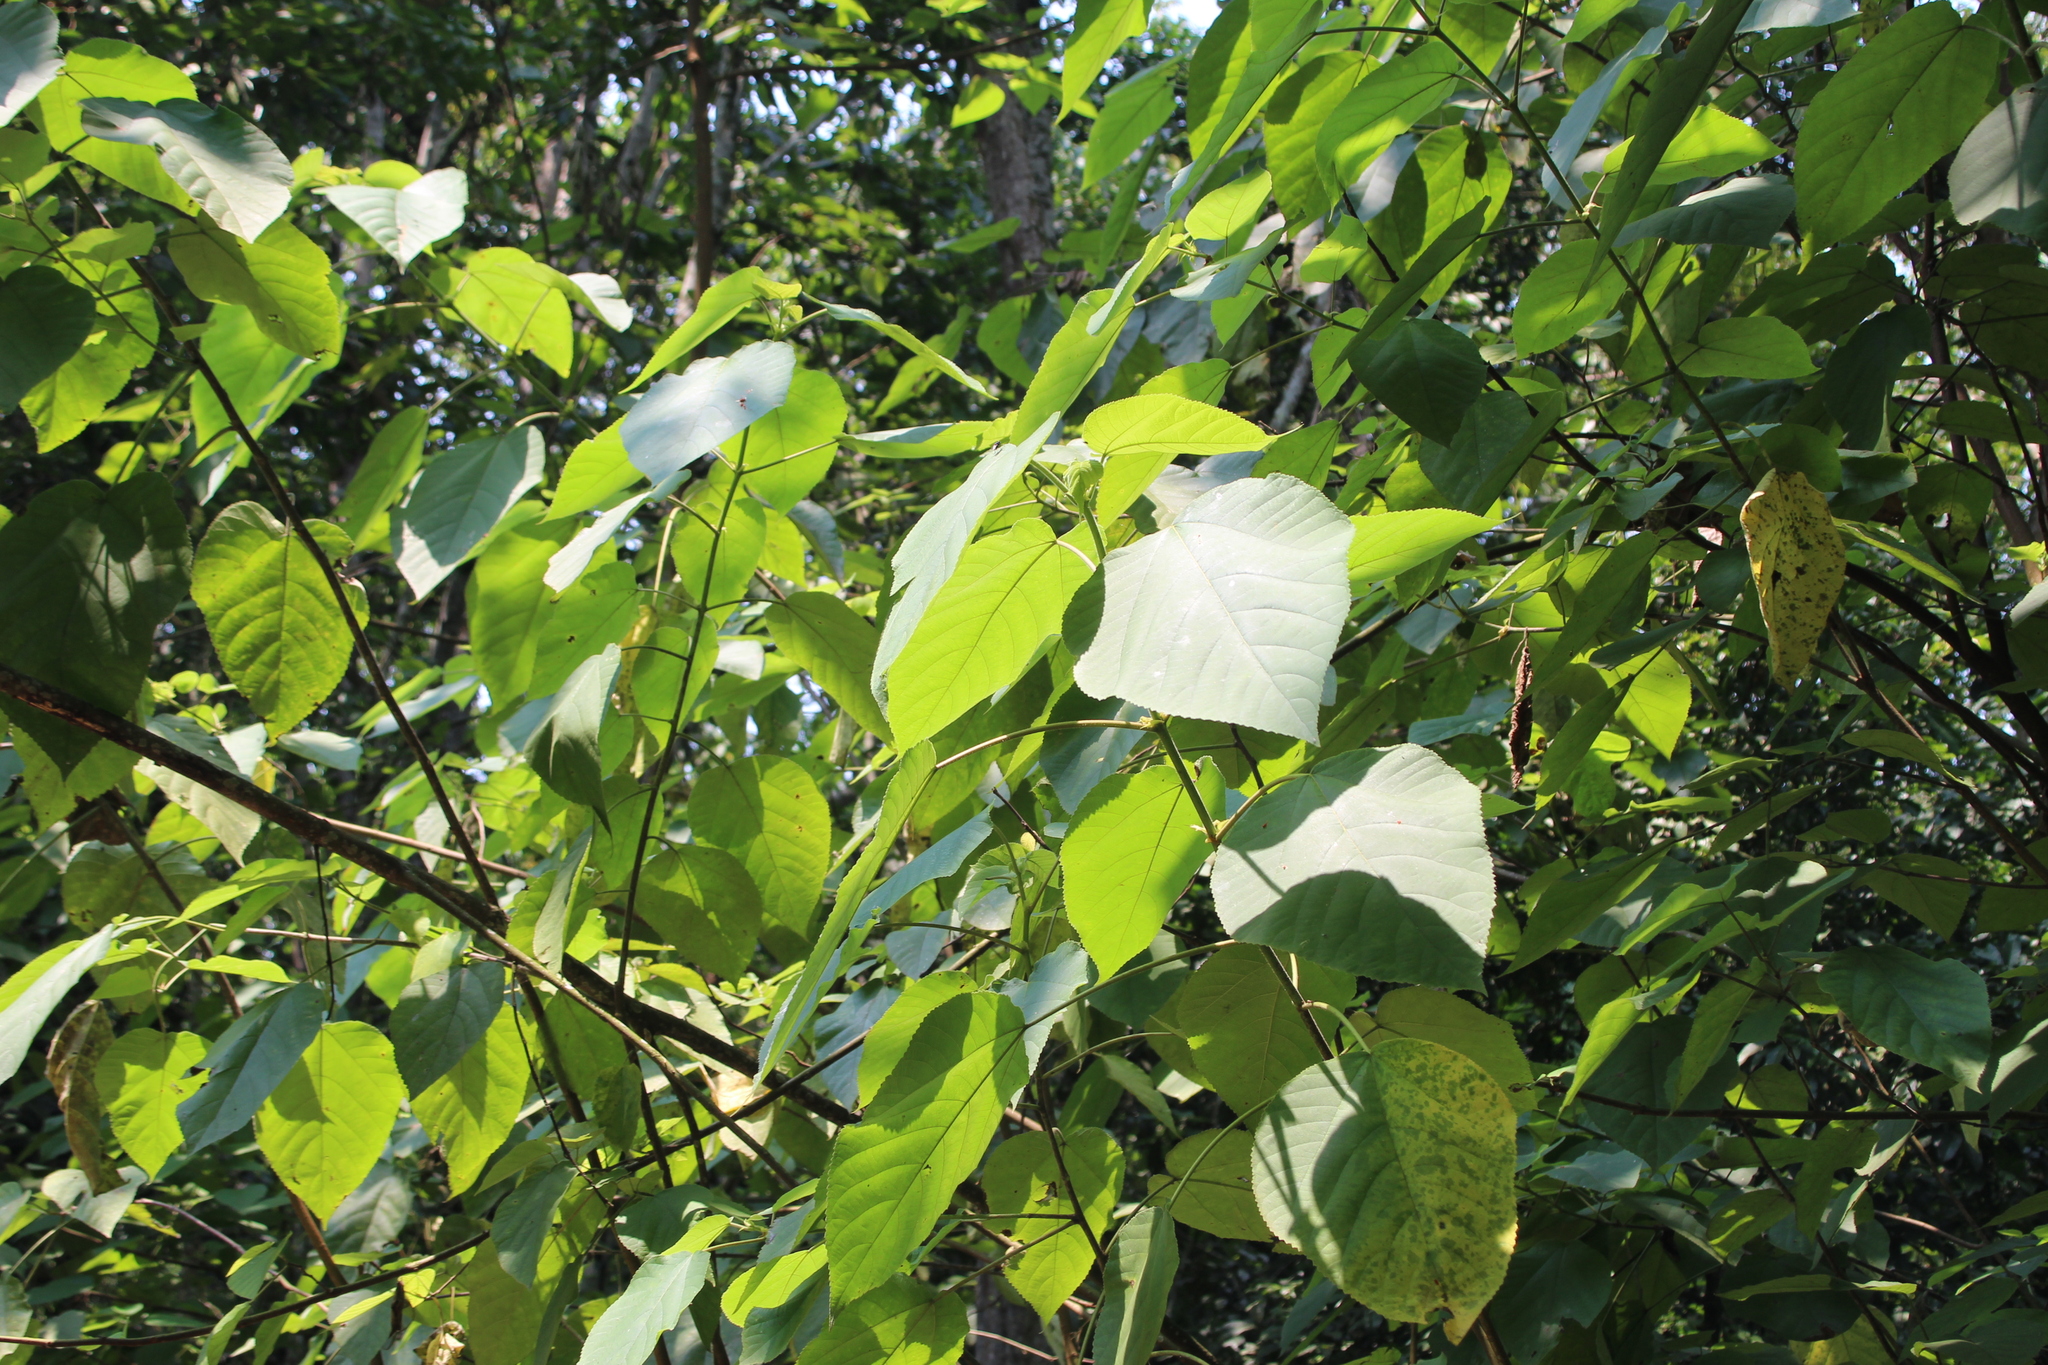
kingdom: Plantae
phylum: Tracheophyta
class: Magnoliopsida
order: Rosales
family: Moraceae
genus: Broussonetia
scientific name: Broussonetia papyrifera
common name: Paper mulberry
